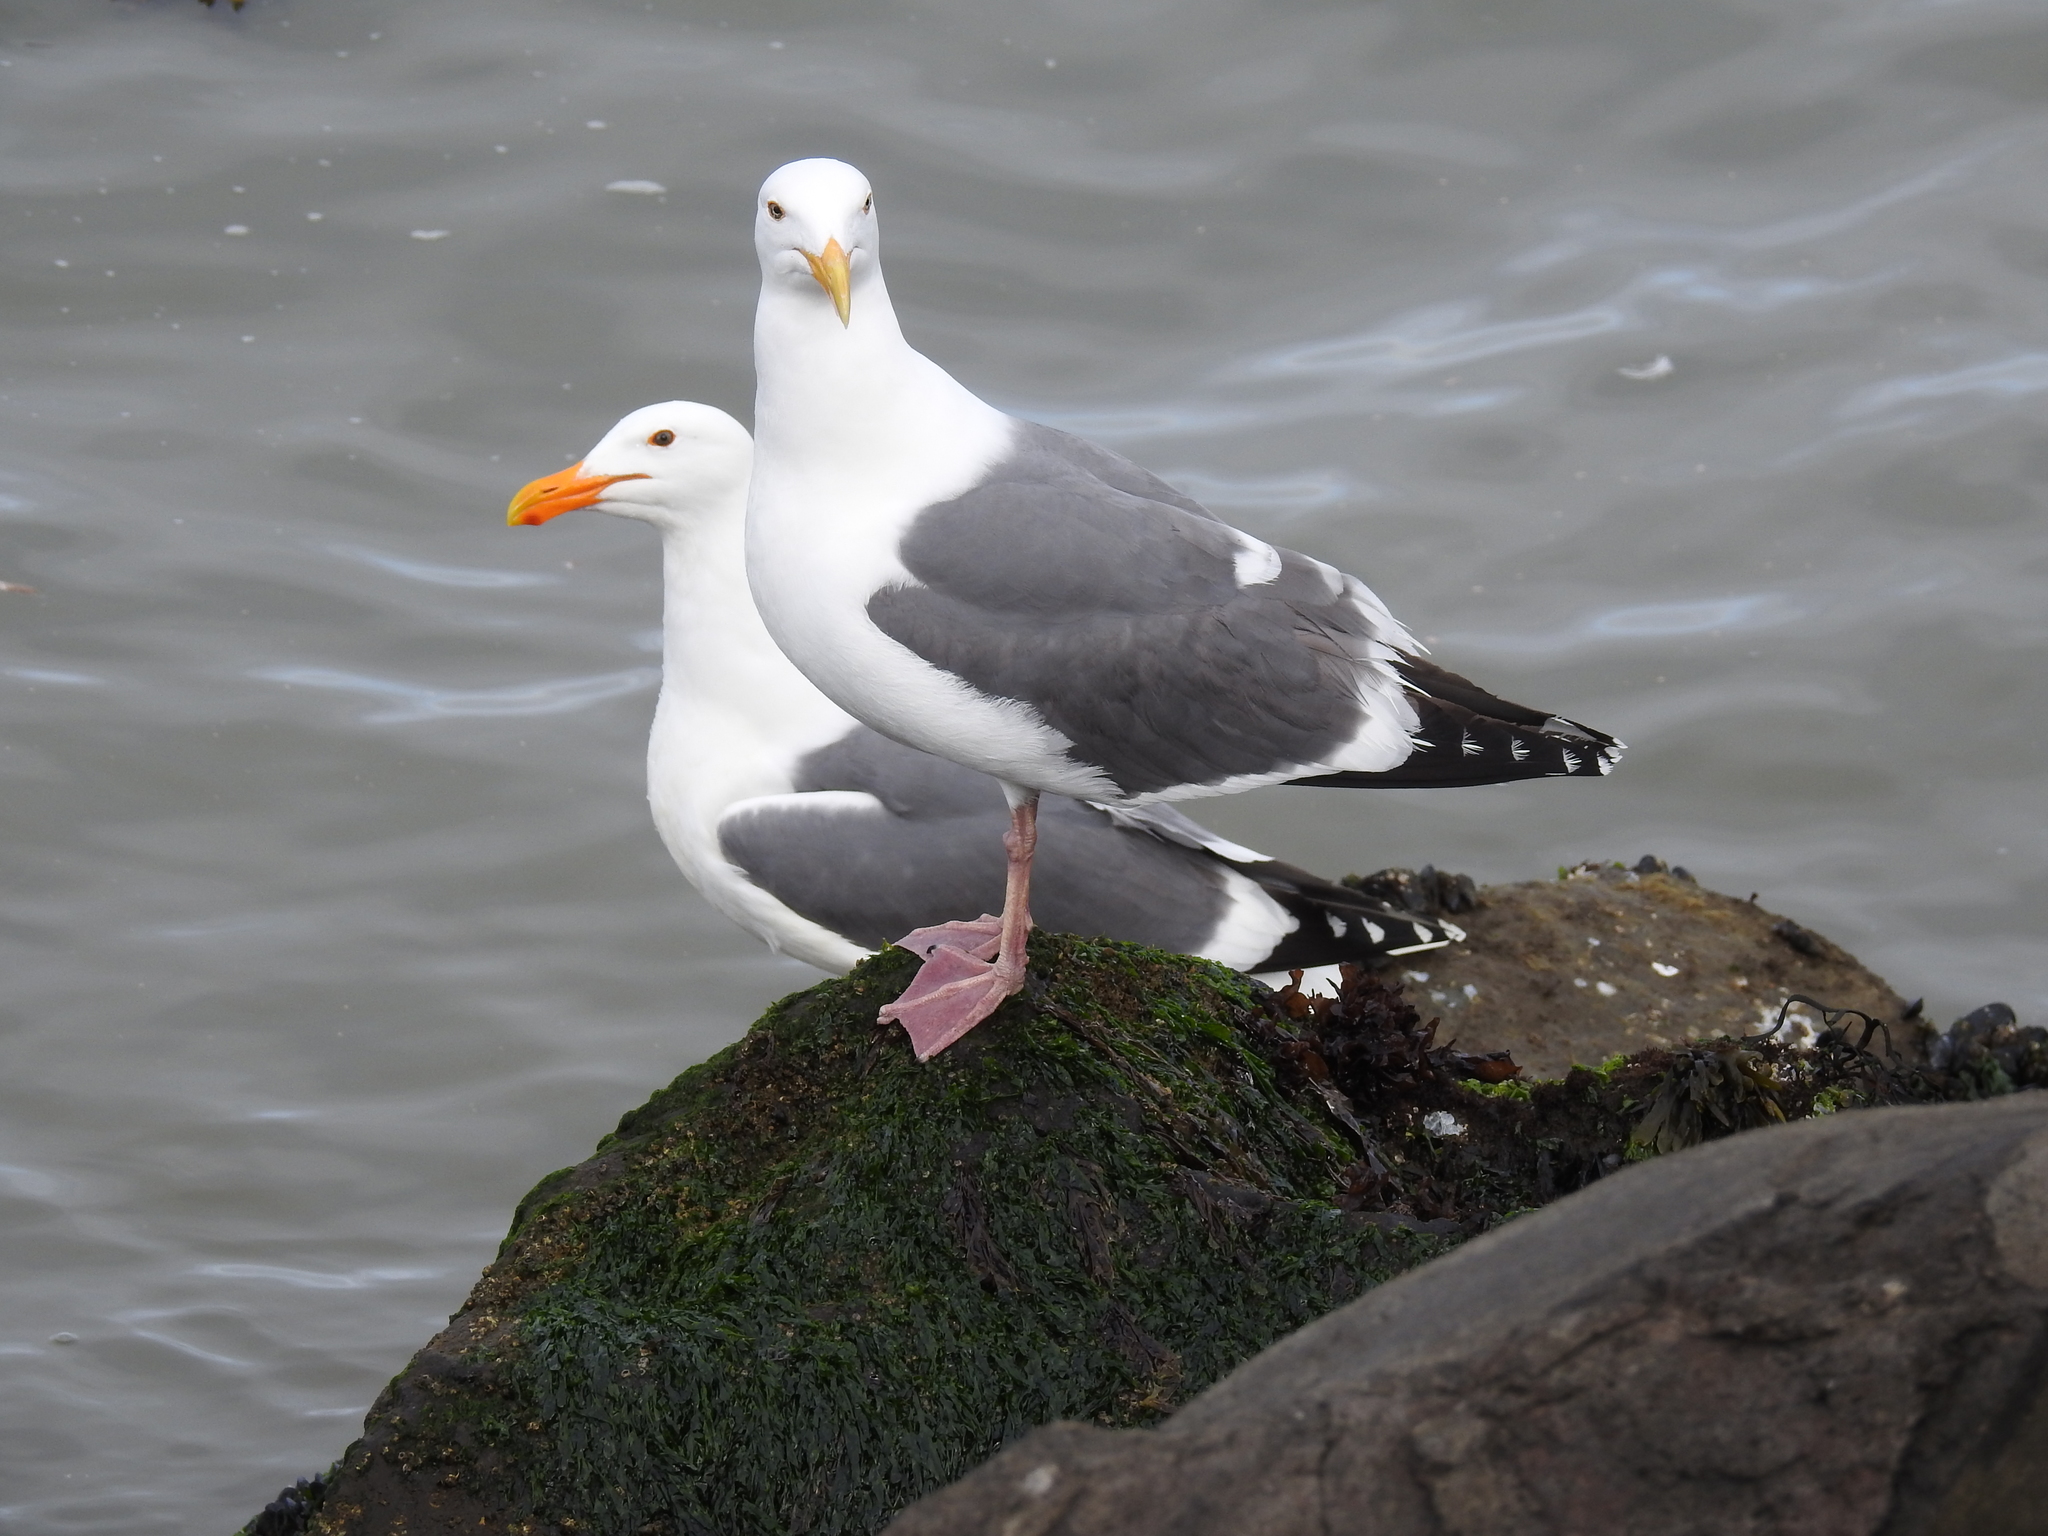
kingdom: Animalia
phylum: Chordata
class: Aves
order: Charadriiformes
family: Laridae
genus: Larus
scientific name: Larus occidentalis
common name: Western gull
